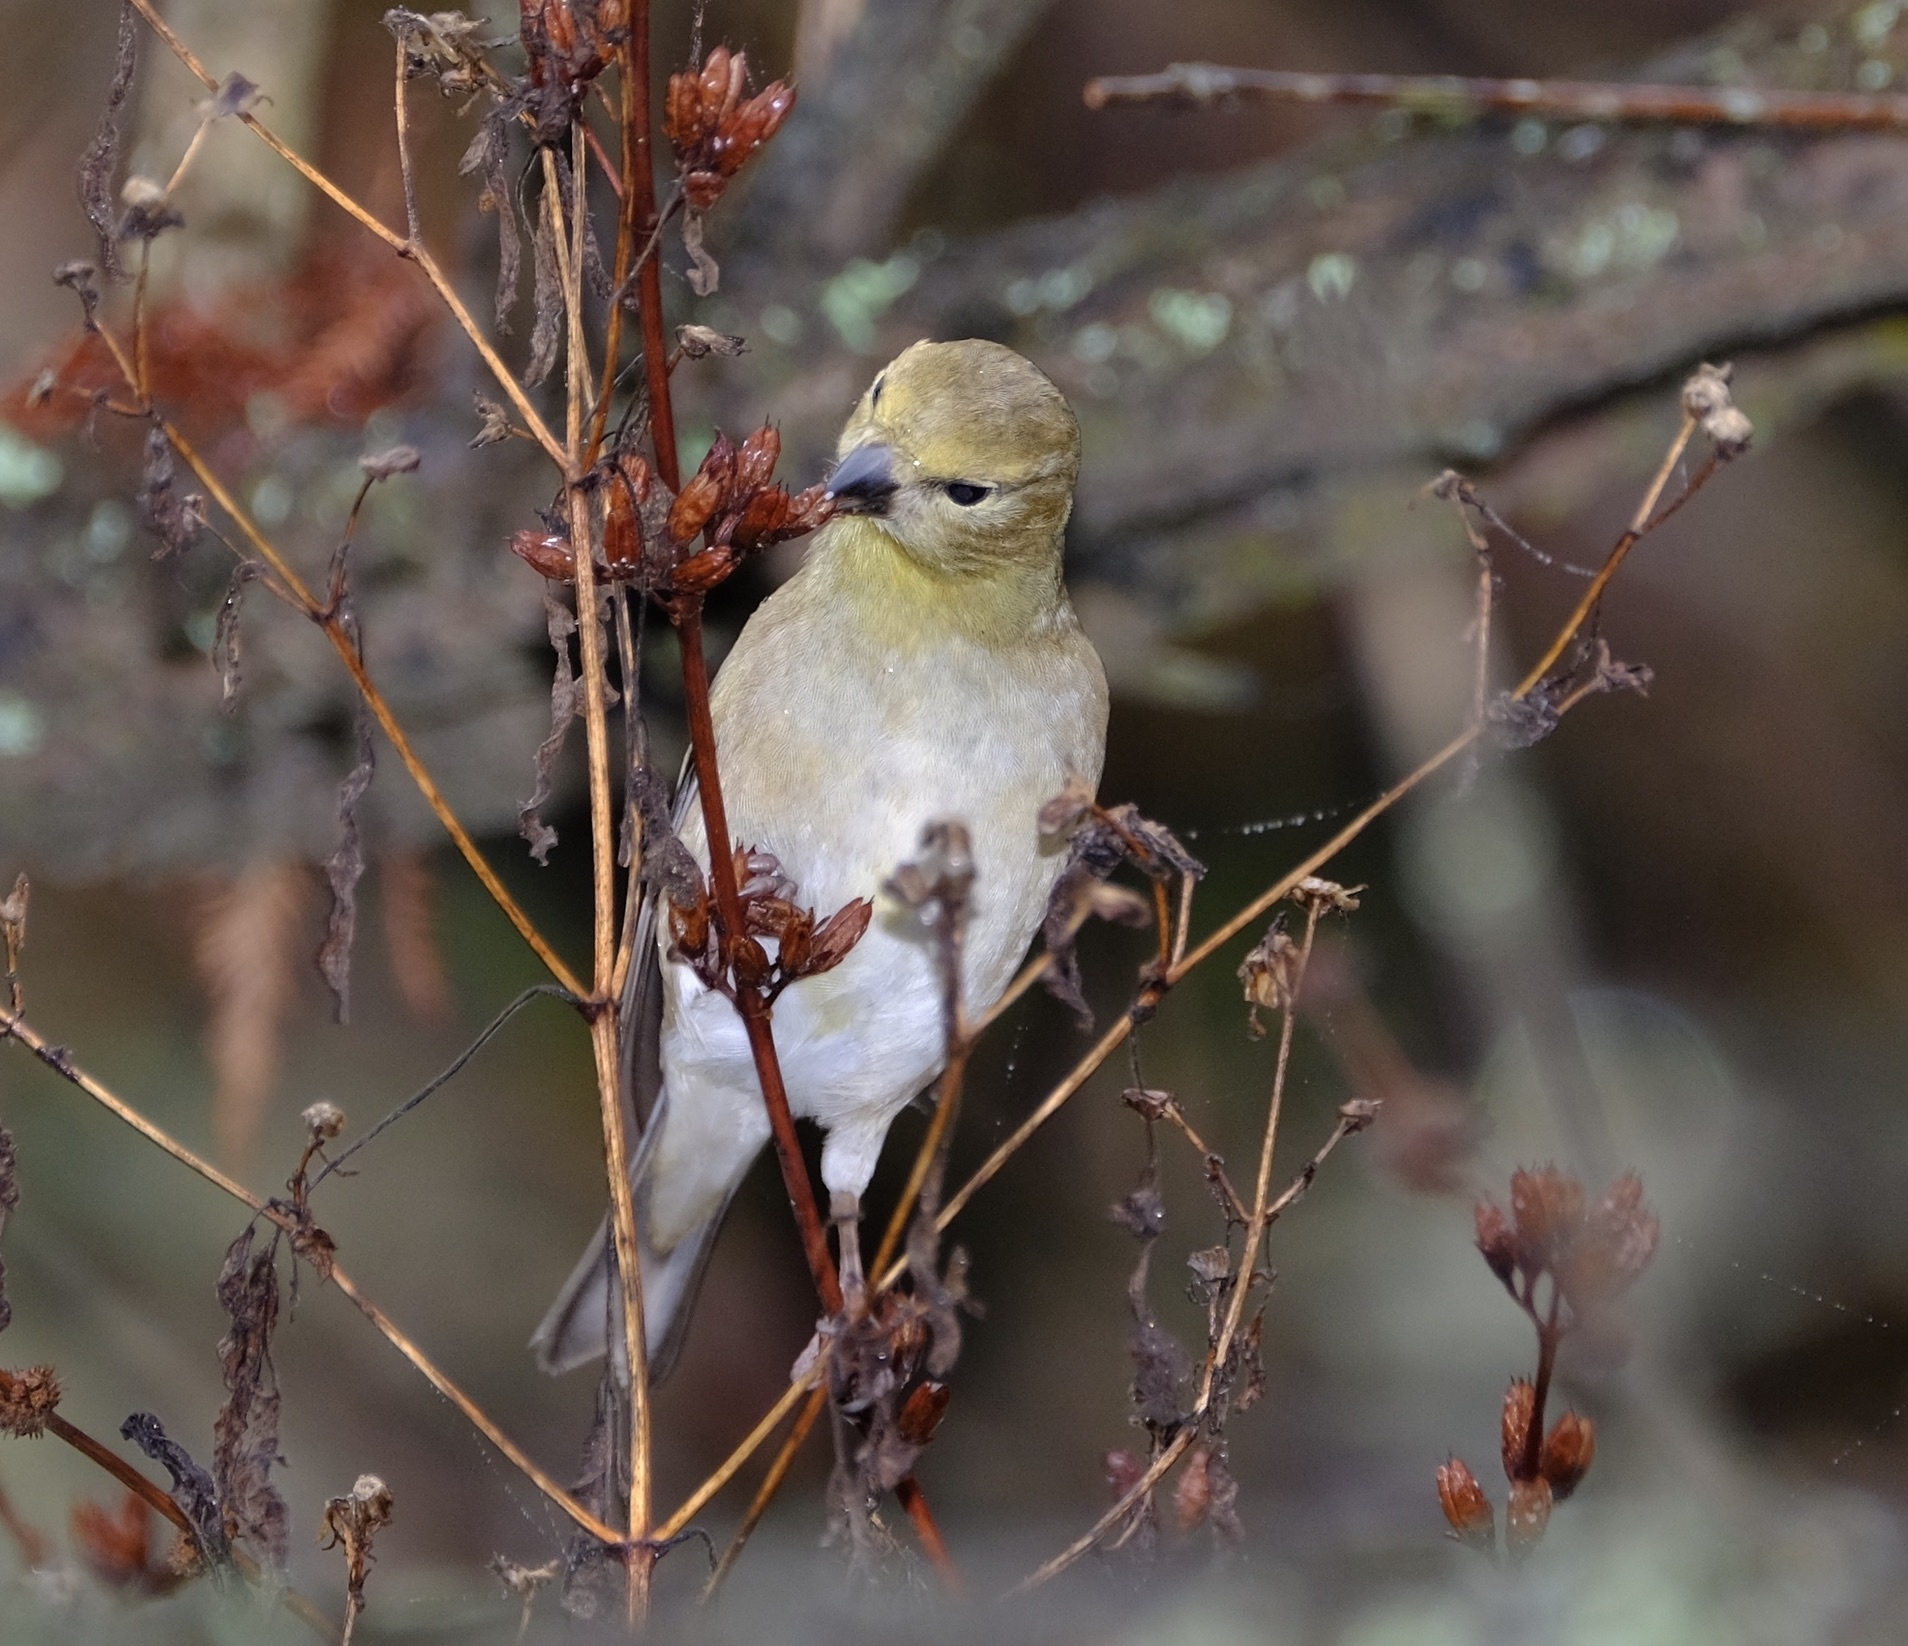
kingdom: Animalia
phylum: Chordata
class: Aves
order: Passeriformes
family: Fringillidae
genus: Spinus
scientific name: Spinus tristis
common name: American goldfinch
